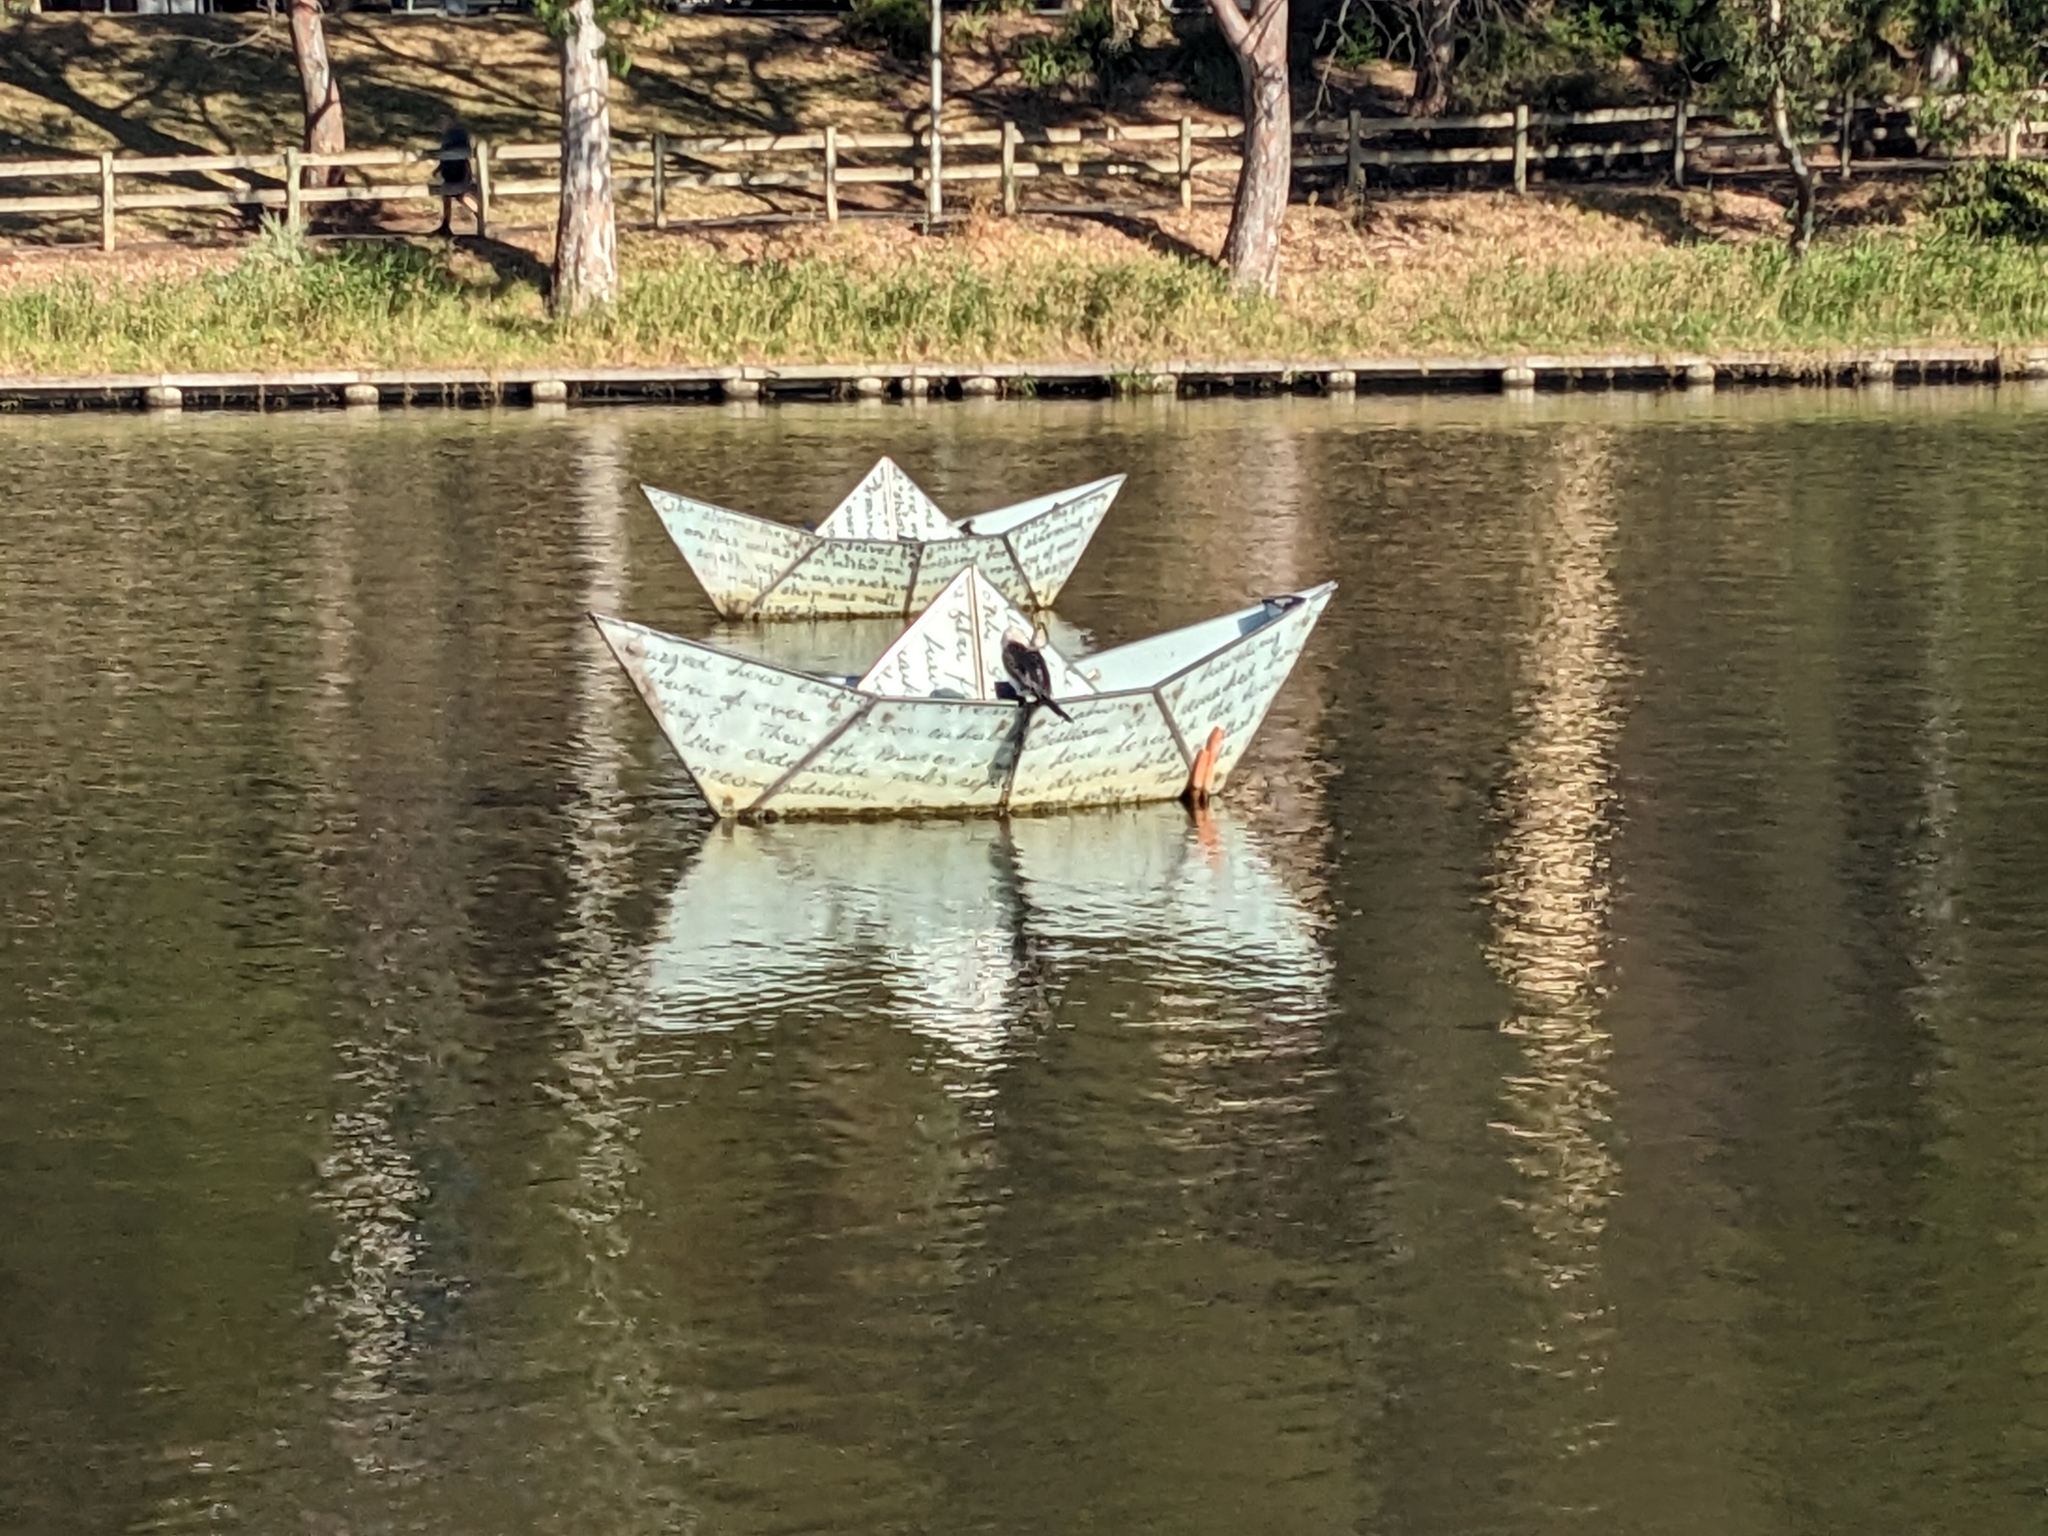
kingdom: Animalia
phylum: Chordata
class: Aves
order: Suliformes
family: Phalacrocoracidae
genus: Microcarbo
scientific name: Microcarbo melanoleucos
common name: Little pied cormorant
